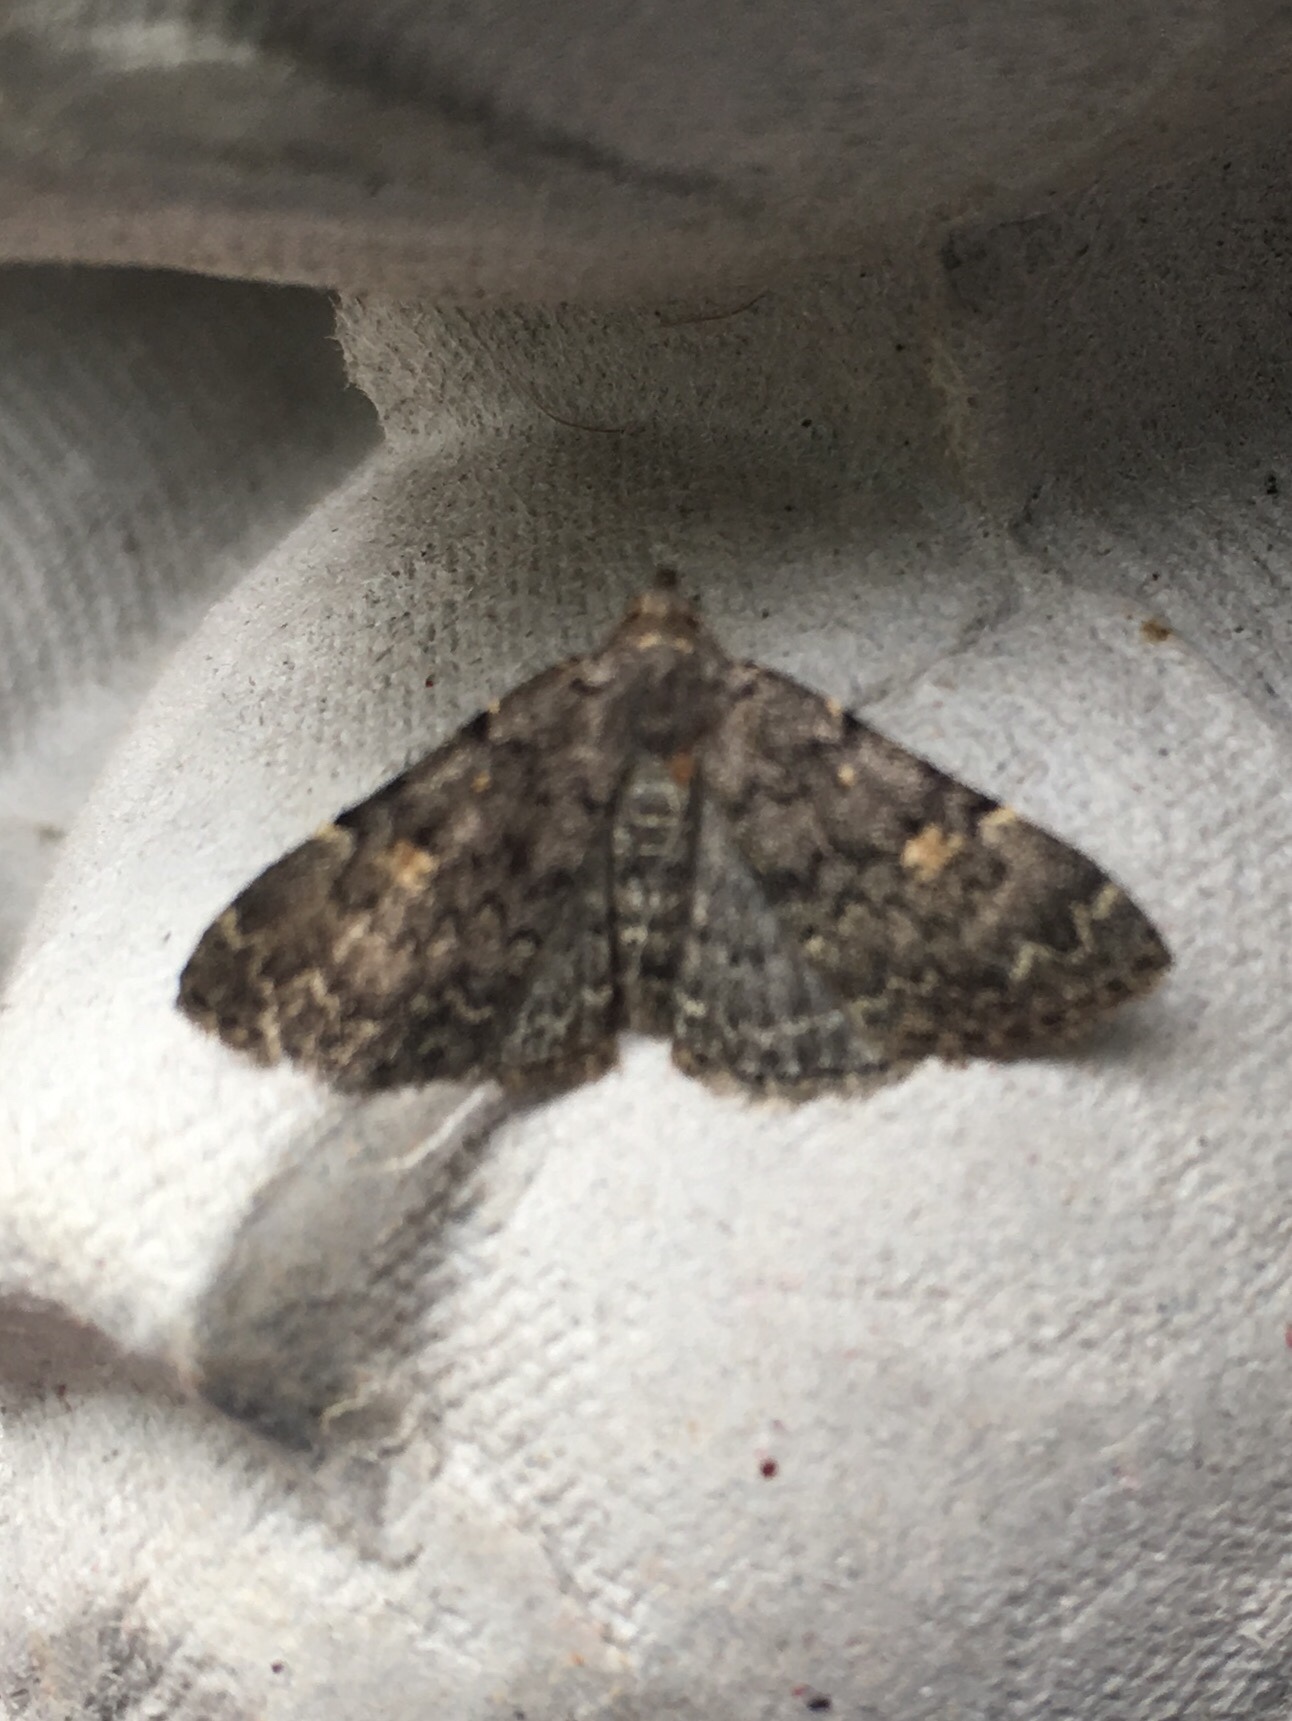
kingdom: Animalia
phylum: Arthropoda
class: Insecta
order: Lepidoptera
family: Erebidae
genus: Idia
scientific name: Idia aemula
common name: Common idia moth
